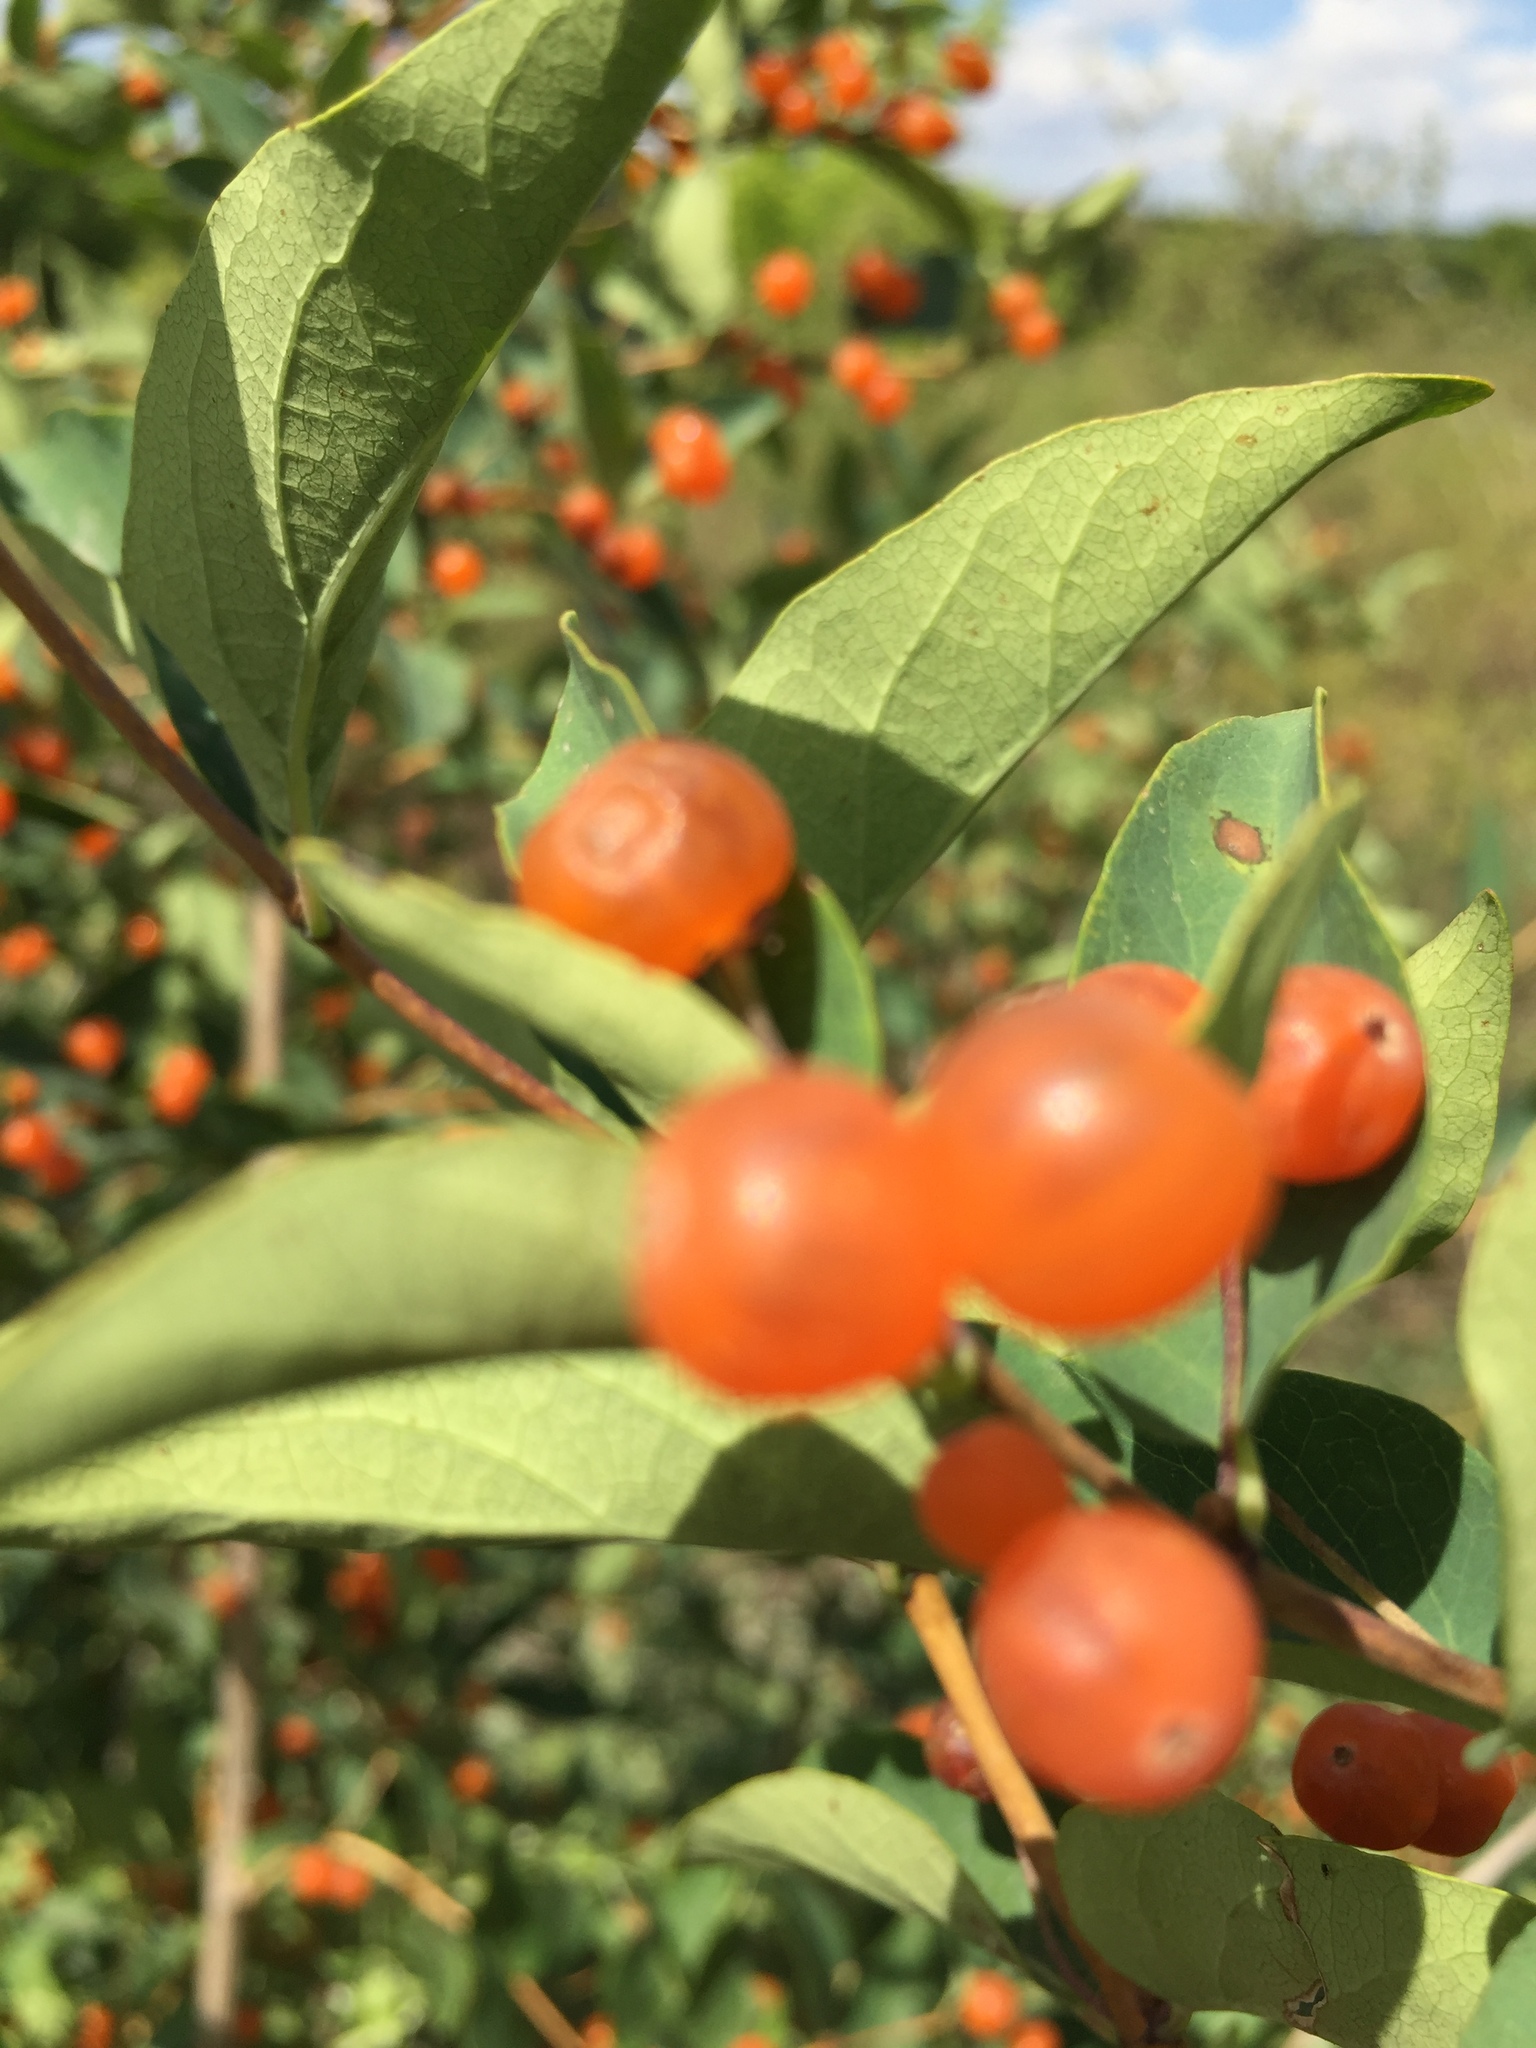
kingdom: Plantae
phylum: Tracheophyta
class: Magnoliopsida
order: Dipsacales
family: Caprifoliaceae
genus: Lonicera
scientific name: Lonicera tatarica
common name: Tatarian honeysuckle
